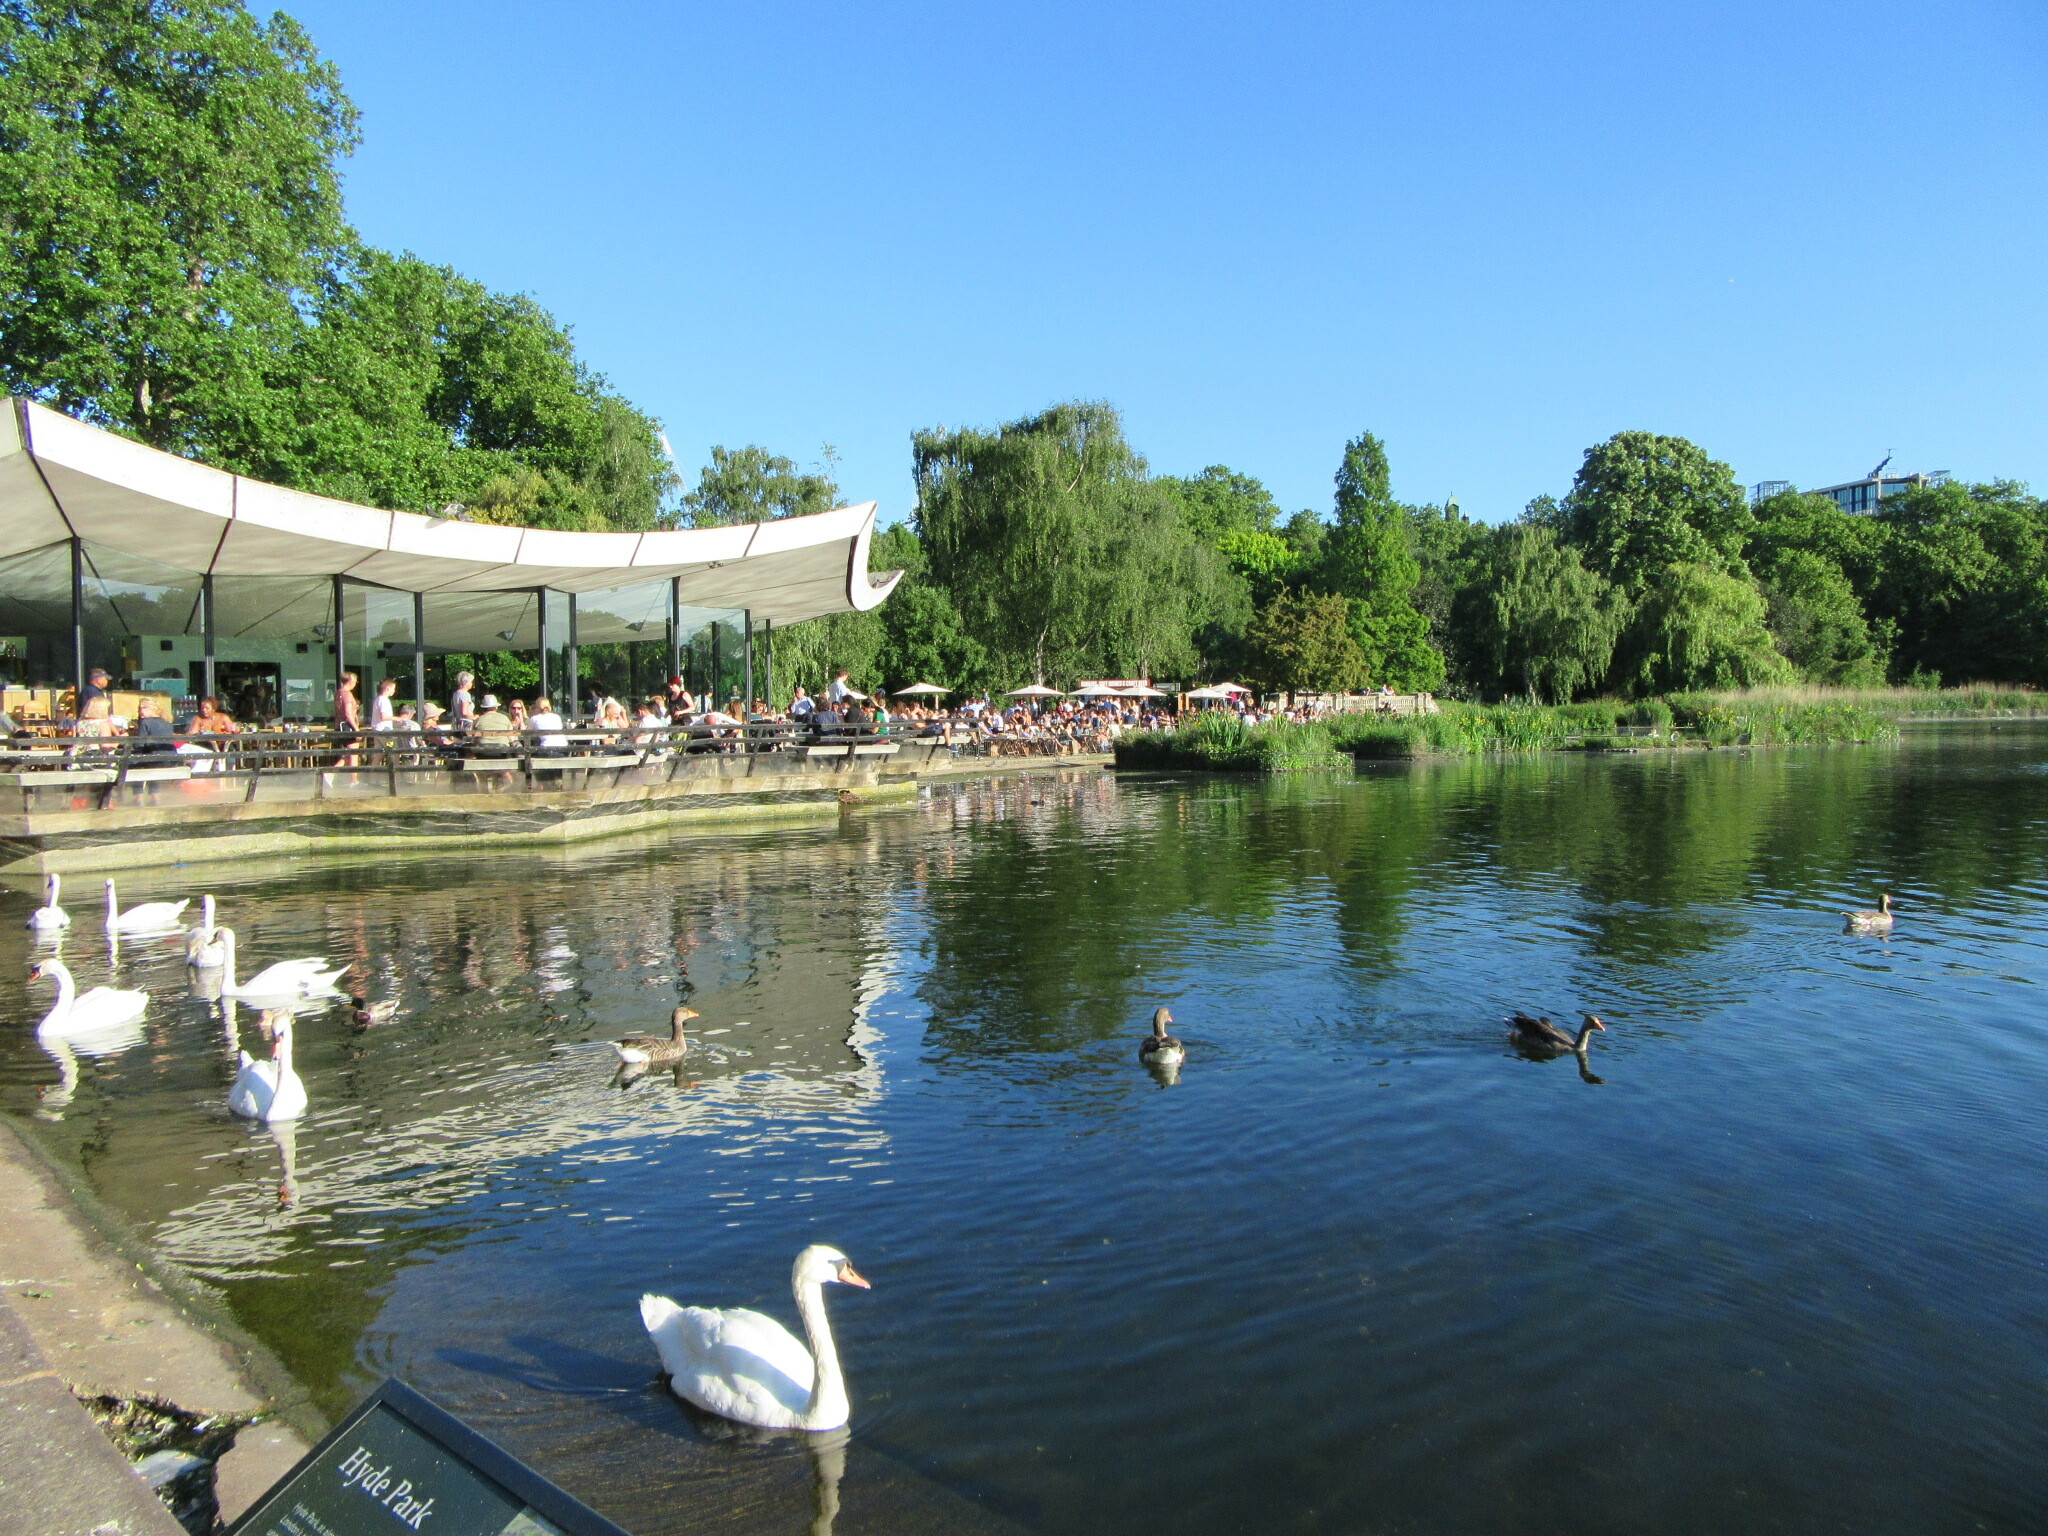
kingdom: Animalia
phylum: Chordata
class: Aves
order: Anseriformes
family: Anatidae
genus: Anser
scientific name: Anser anser
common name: Greylag goose
